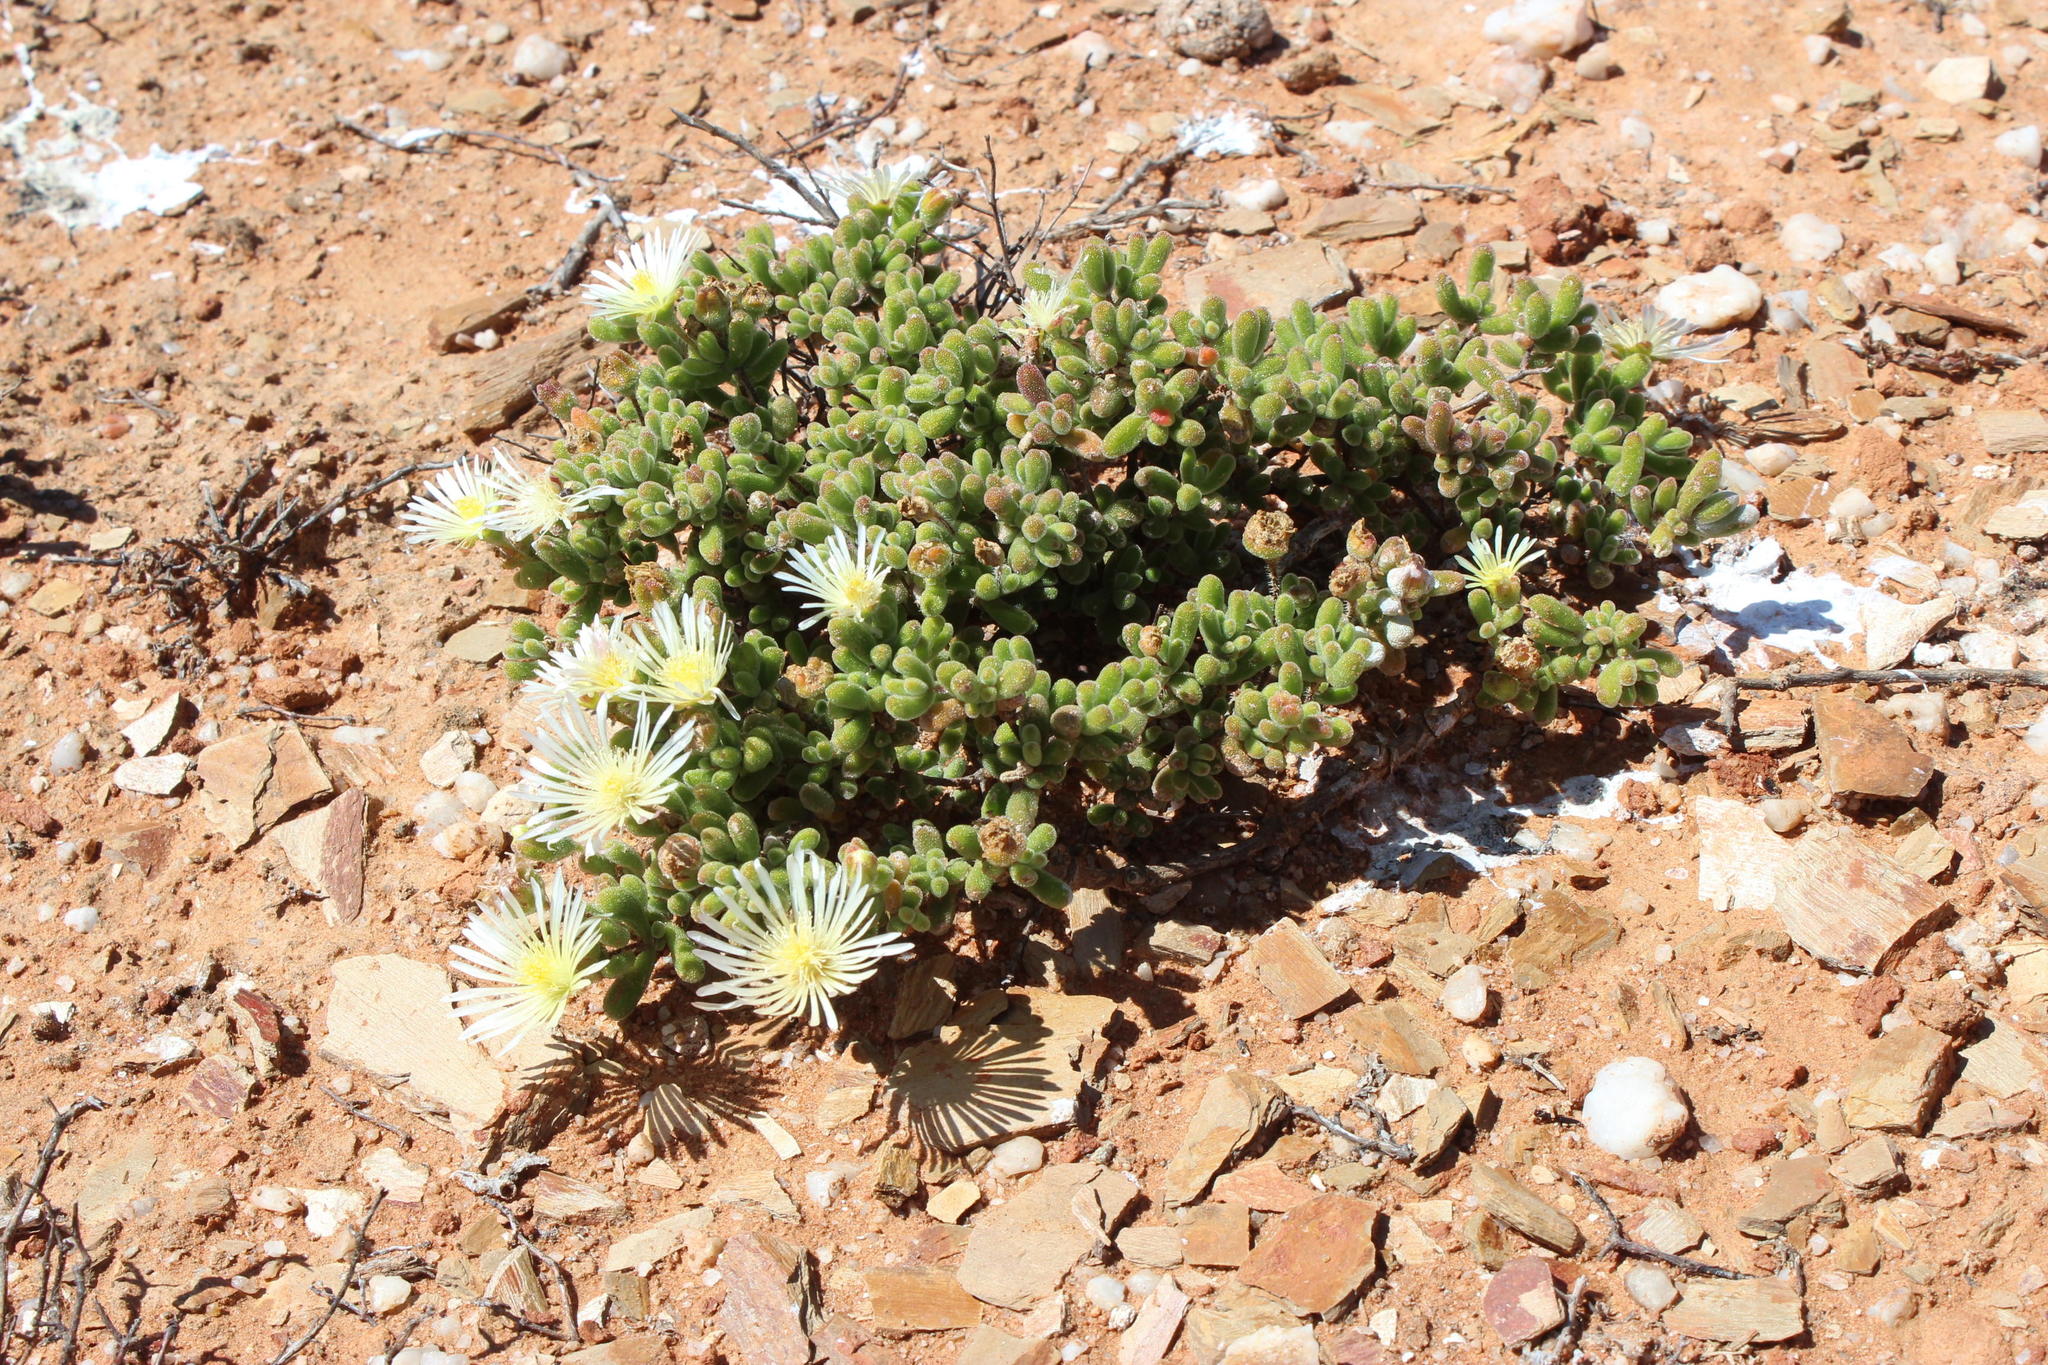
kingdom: Plantae
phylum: Tracheophyta
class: Magnoliopsida
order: Caryophyllales
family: Aizoaceae
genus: Drosanthemum
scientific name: Drosanthemum schoenlandianum
